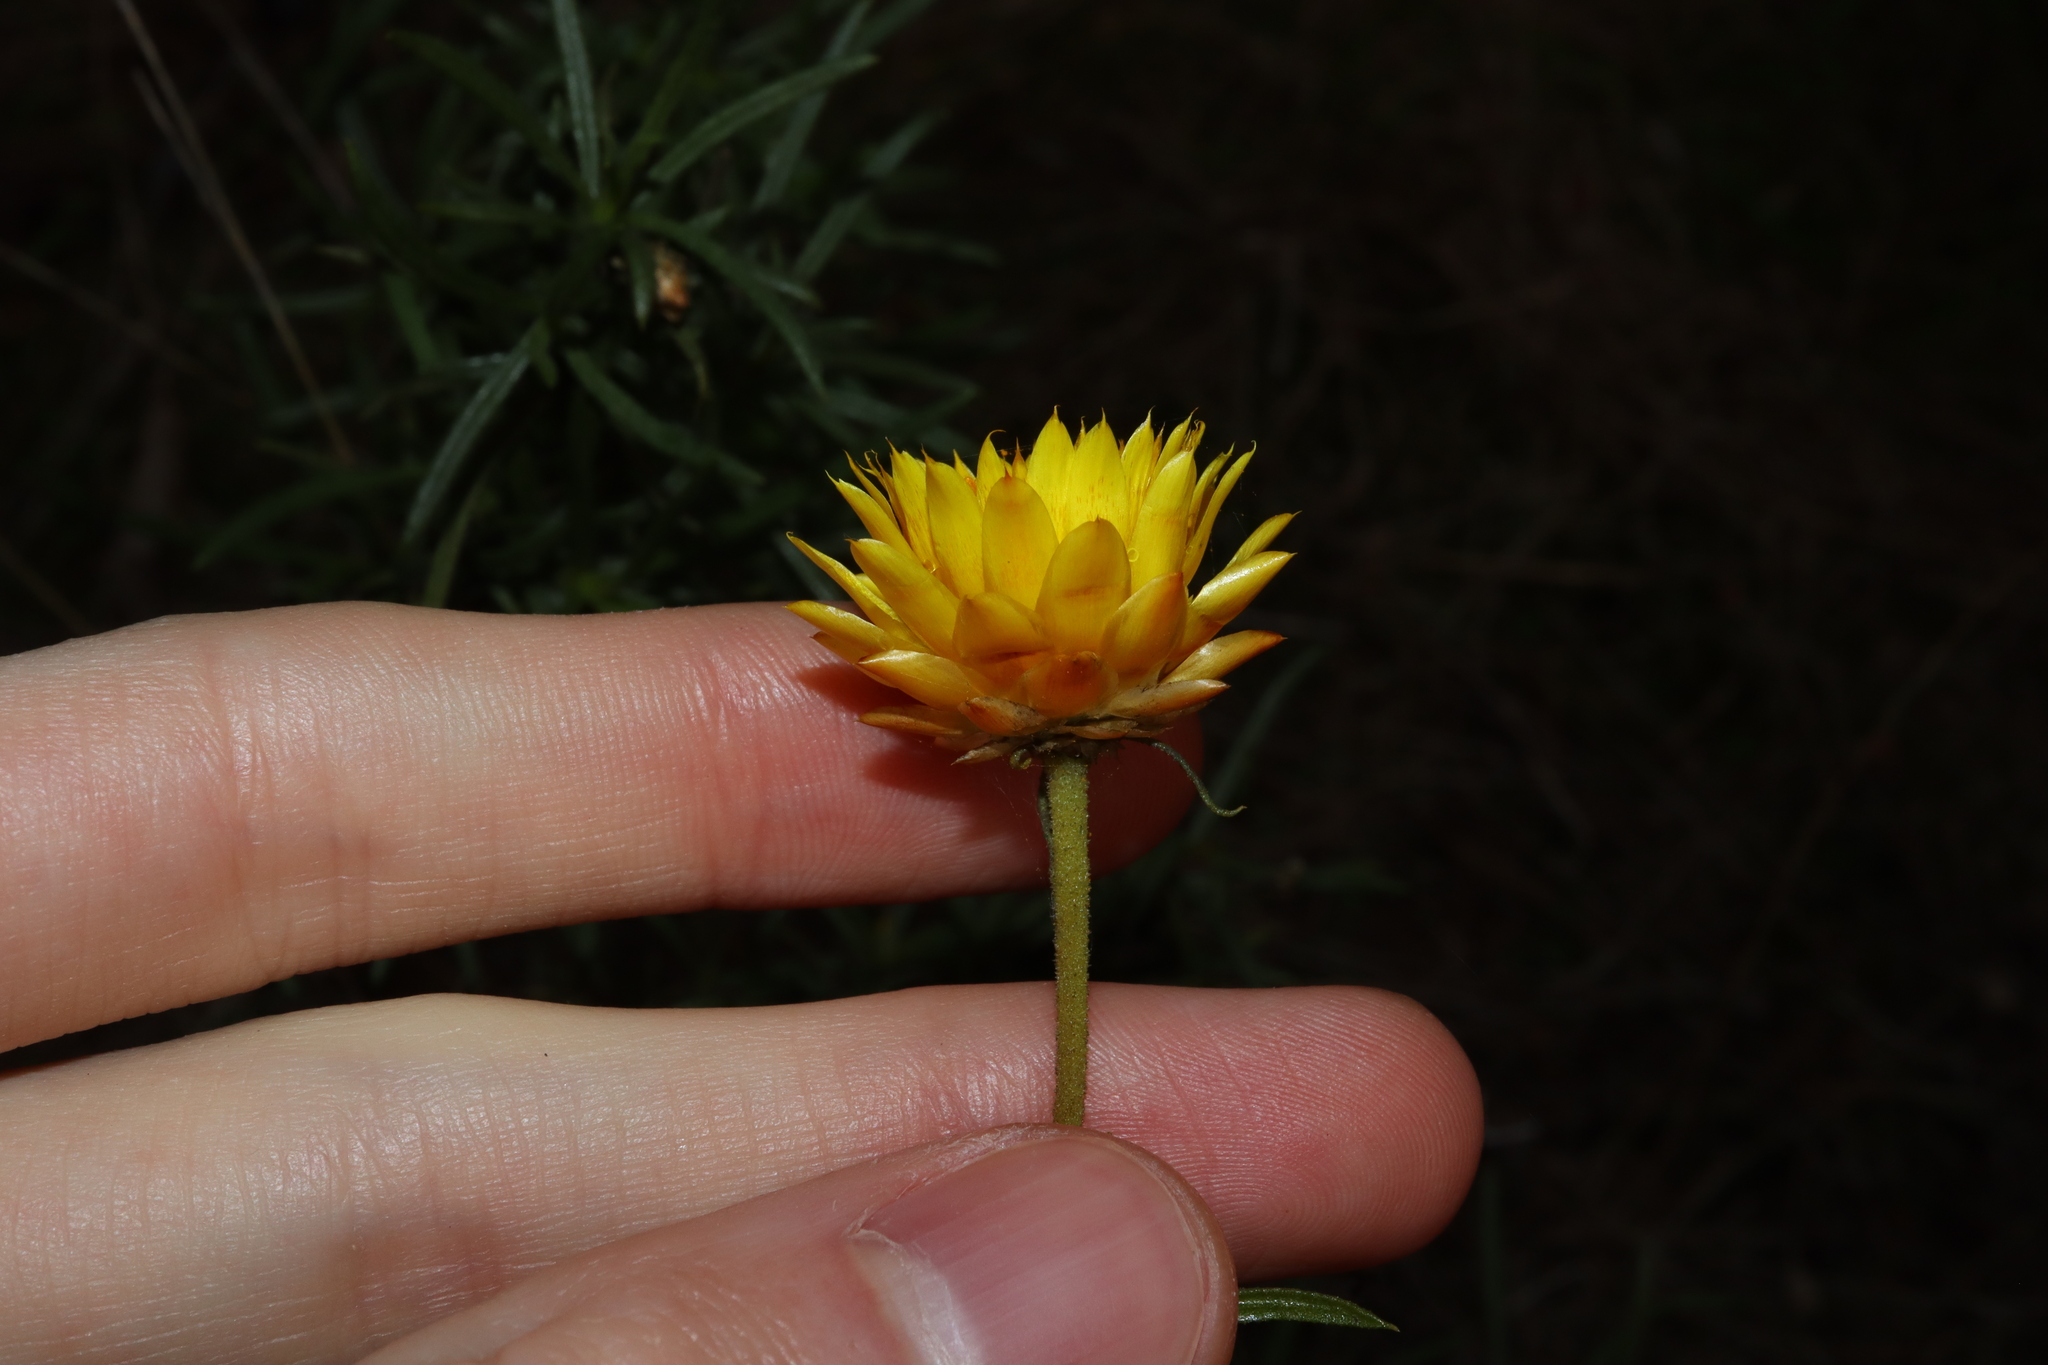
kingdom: Plantae
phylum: Tracheophyta
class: Magnoliopsida
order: Asterales
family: Asteraceae
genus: Xerochrysum
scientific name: Xerochrysum viscosum
